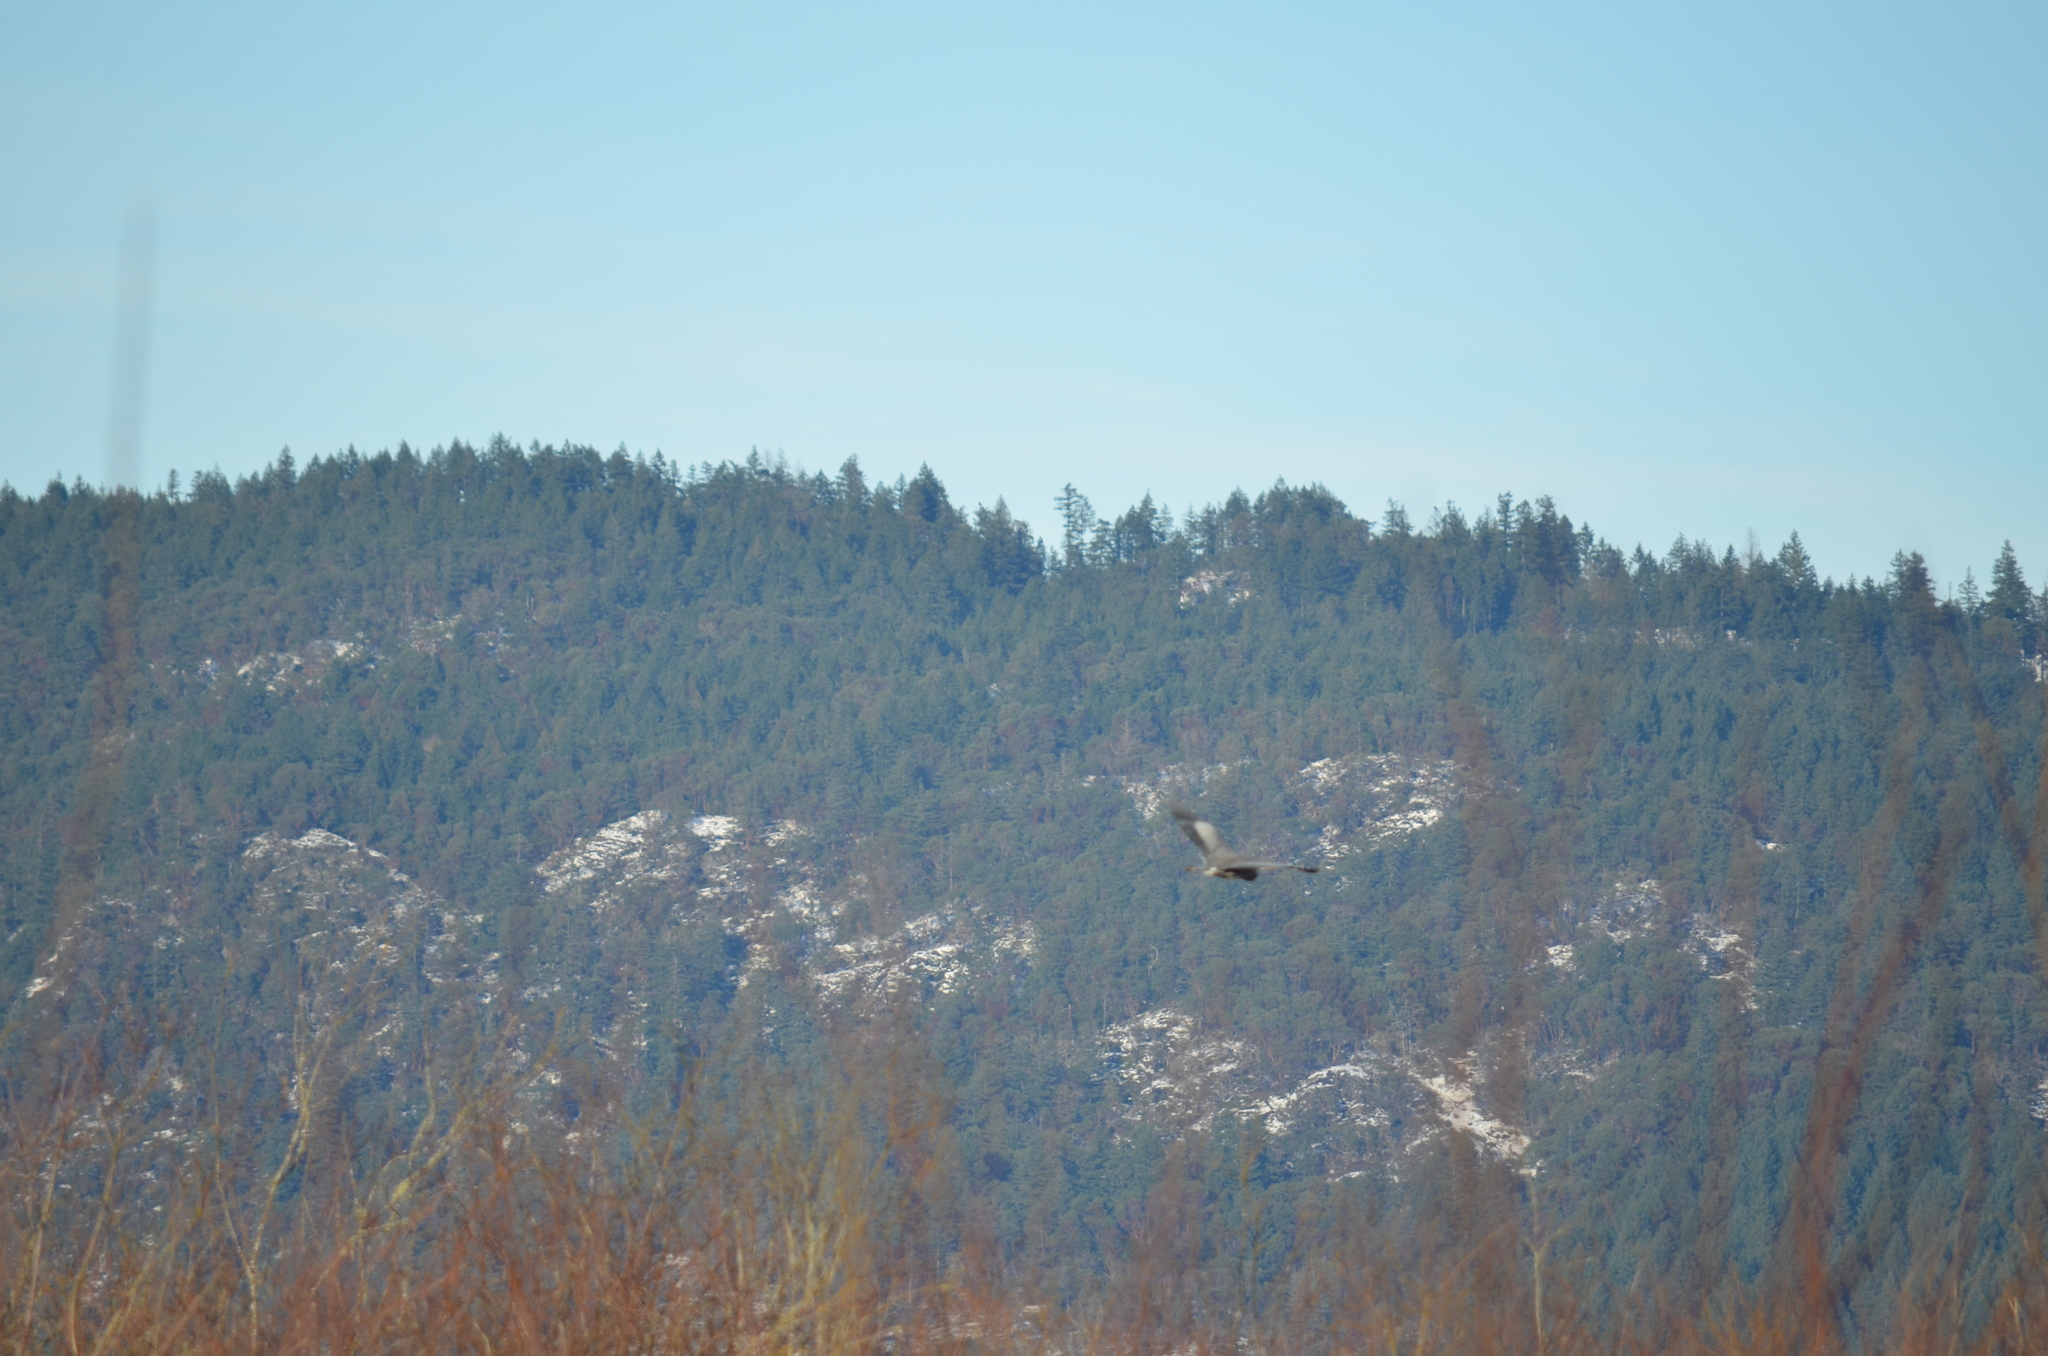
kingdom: Animalia
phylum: Chordata
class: Aves
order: Pelecaniformes
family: Ardeidae
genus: Ardea
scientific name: Ardea herodias
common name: Great blue heron
